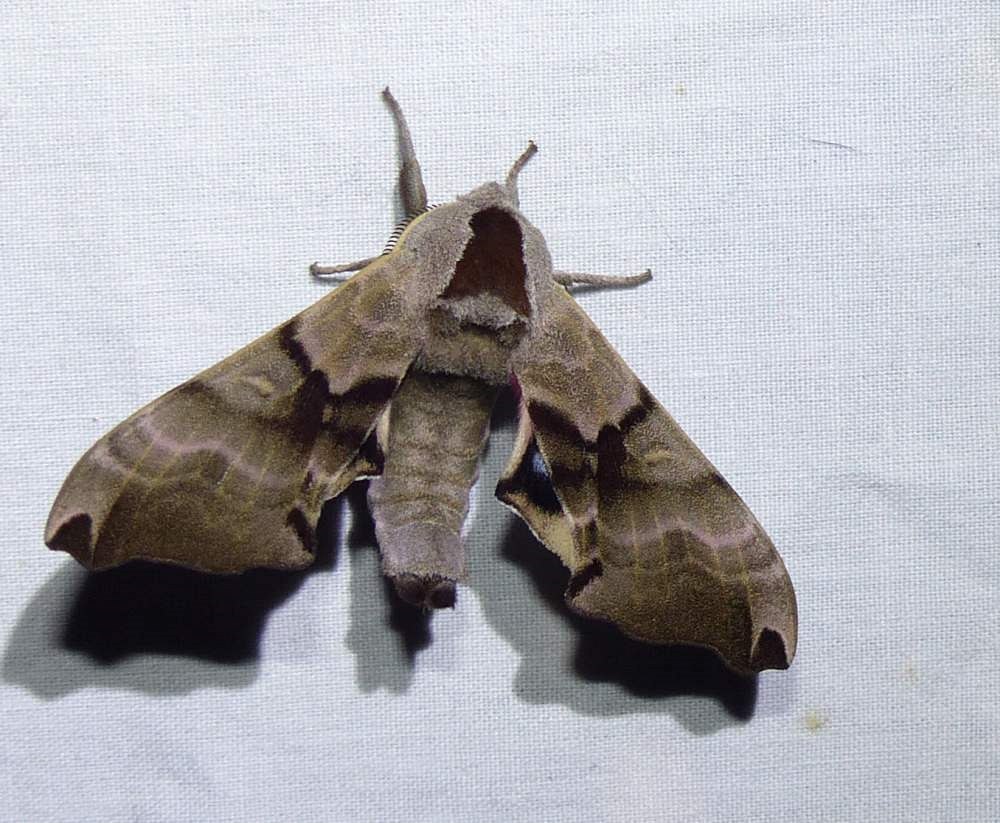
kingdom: Animalia
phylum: Arthropoda
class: Insecta
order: Lepidoptera
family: Sphingidae
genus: Smerinthus
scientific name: Smerinthus jamaicensis
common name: Twin spotted sphinx
